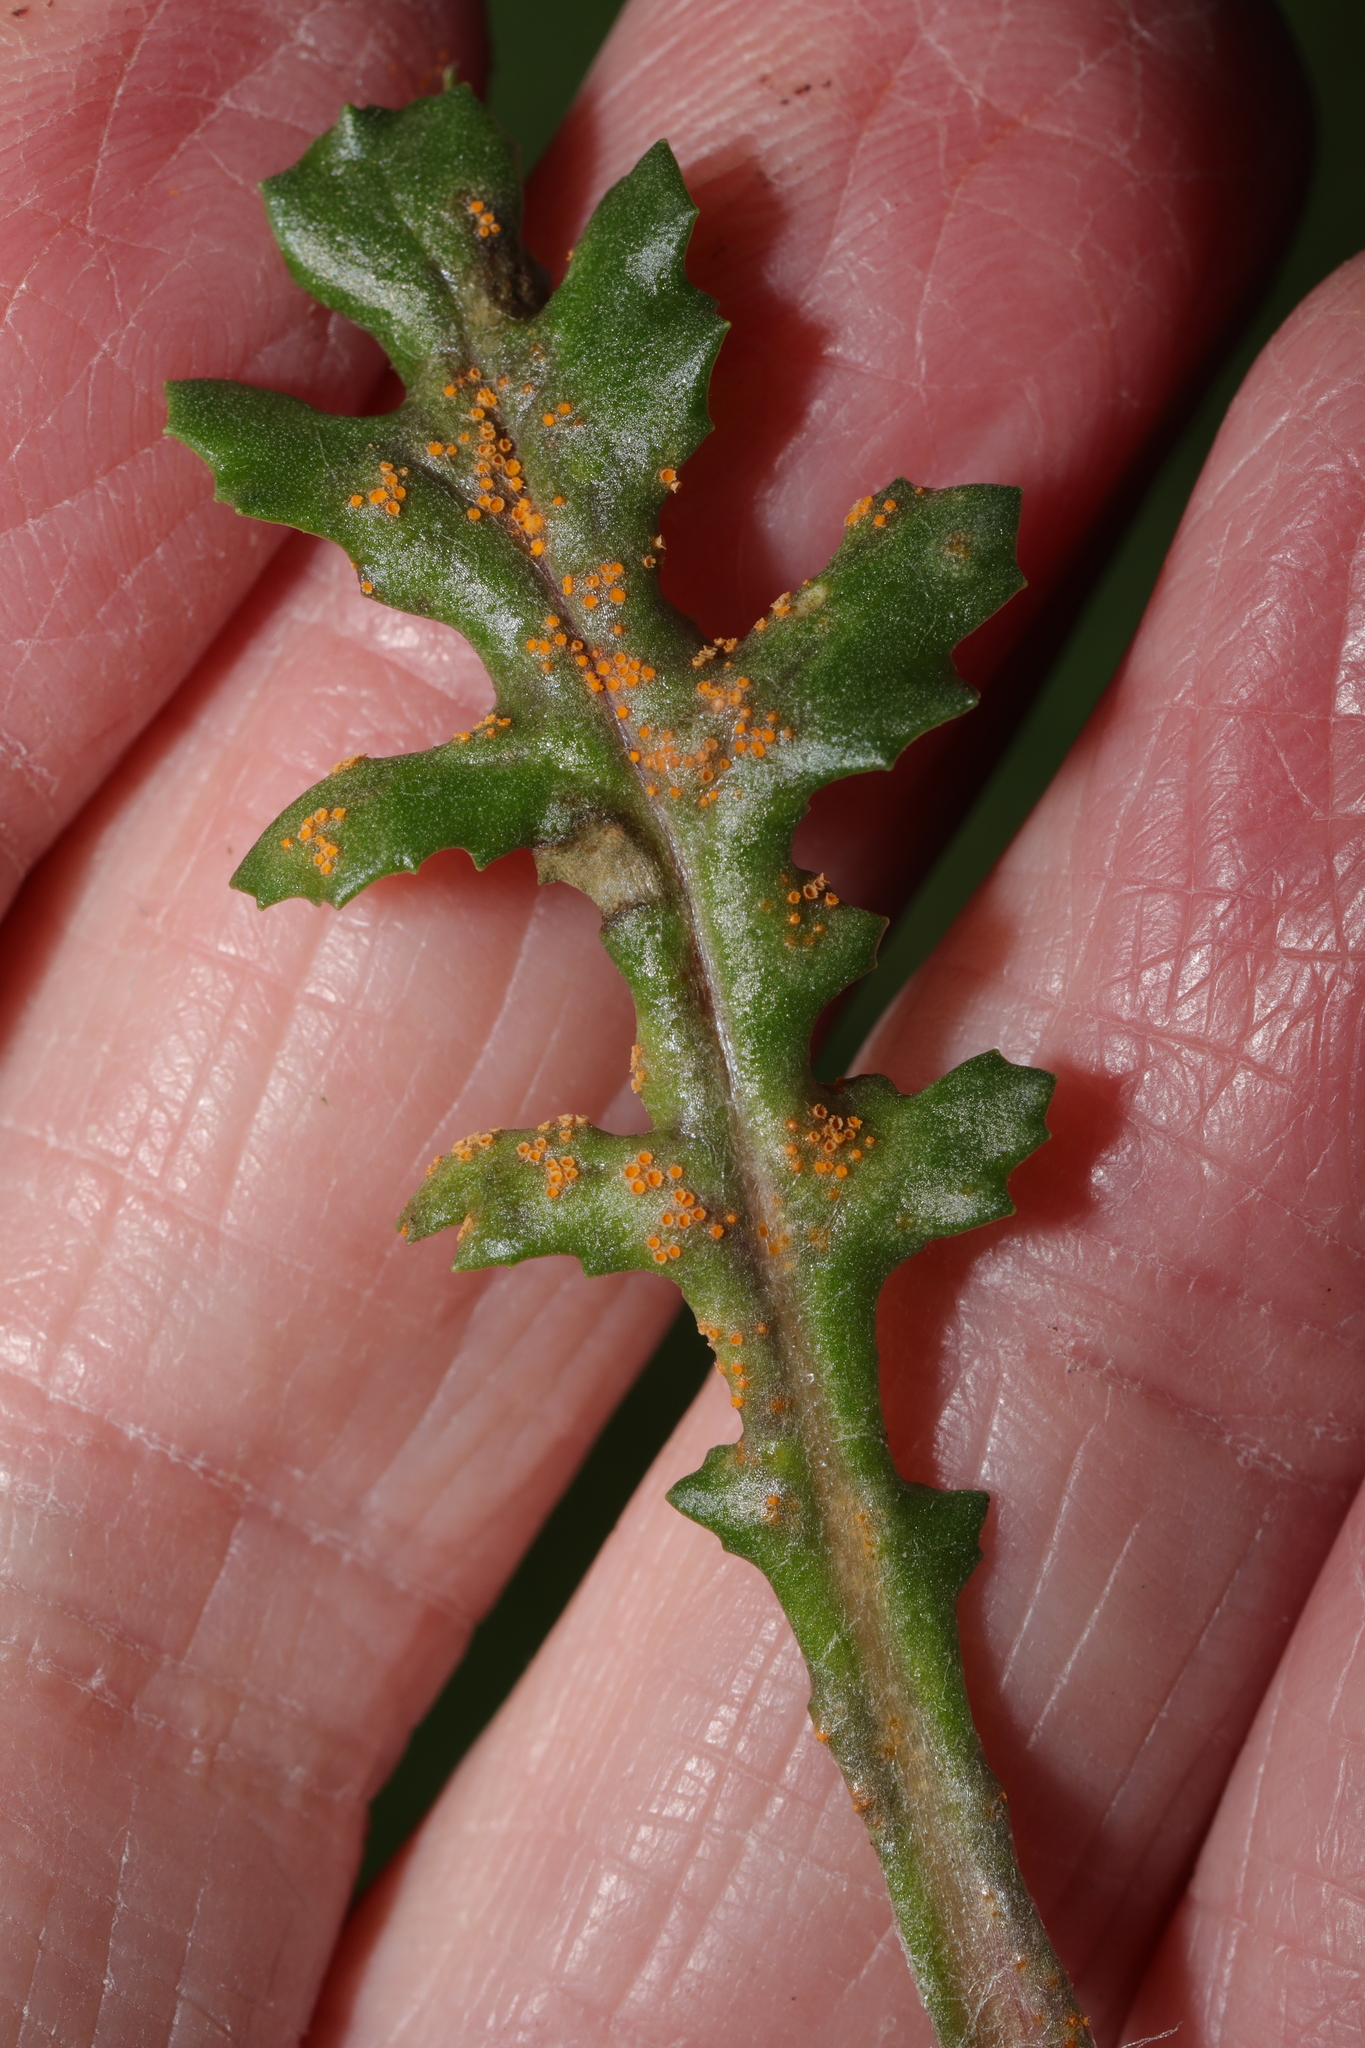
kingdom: Fungi
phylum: Basidiomycota
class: Pucciniomycetes
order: Pucciniales
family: Pucciniaceae
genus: Puccinia
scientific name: Puccinia lagenophorae
